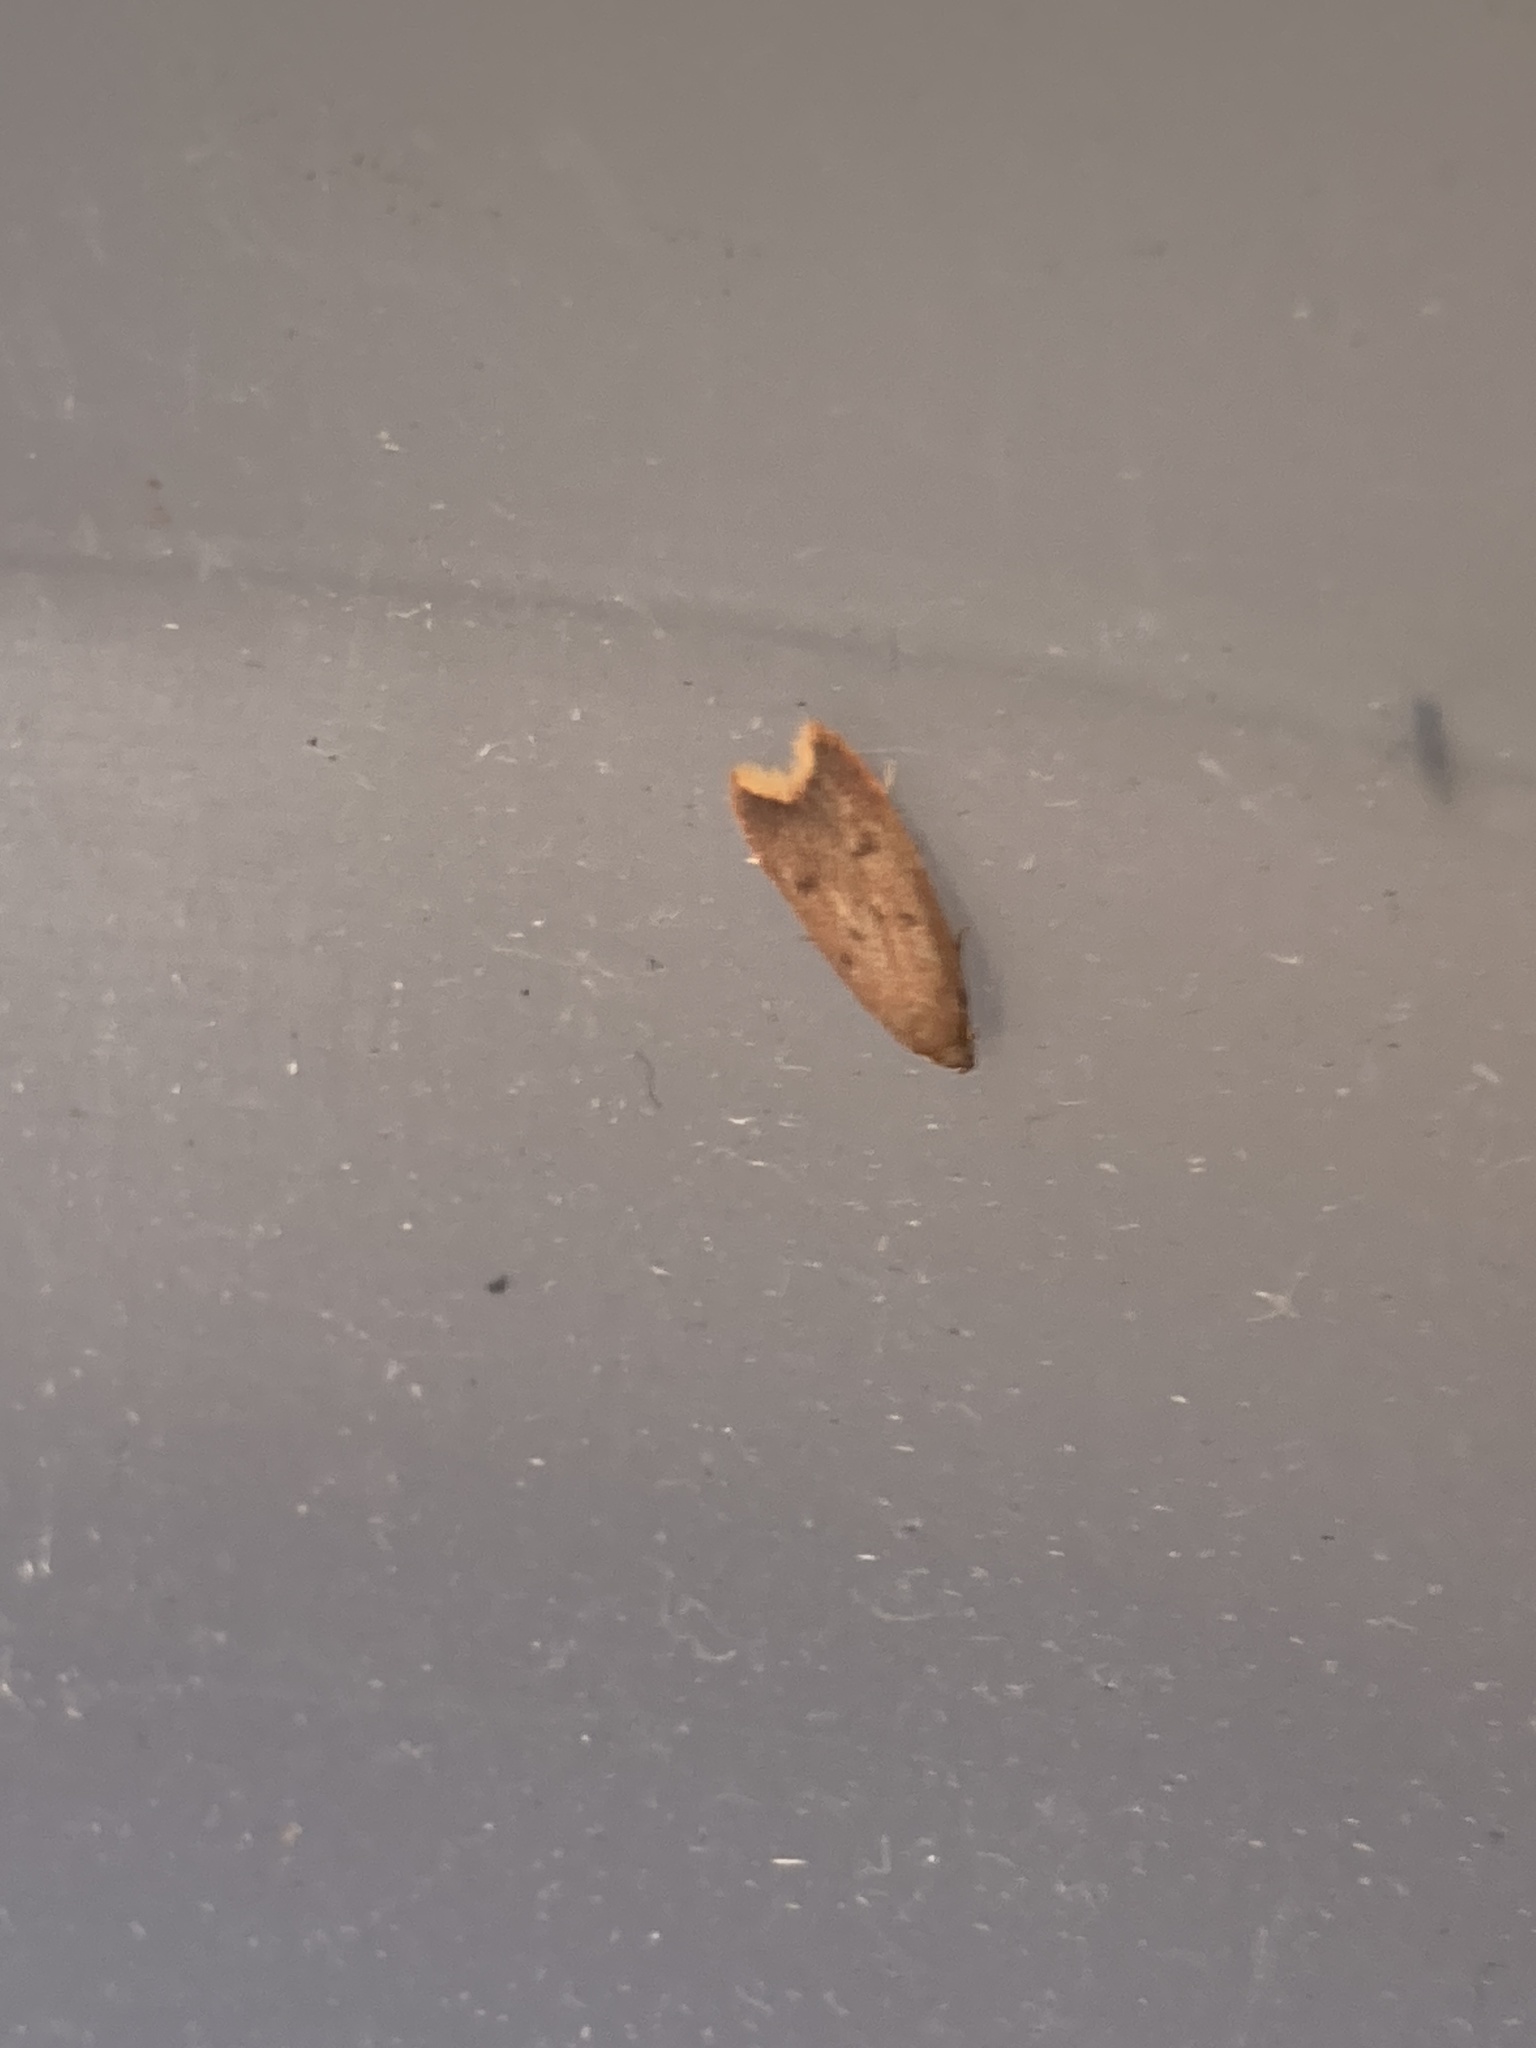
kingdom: Animalia
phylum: Arthropoda
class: Insecta
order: Lepidoptera
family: Oecophoridae
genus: Tachystola
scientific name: Tachystola acroxantha
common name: Ruddy streak
